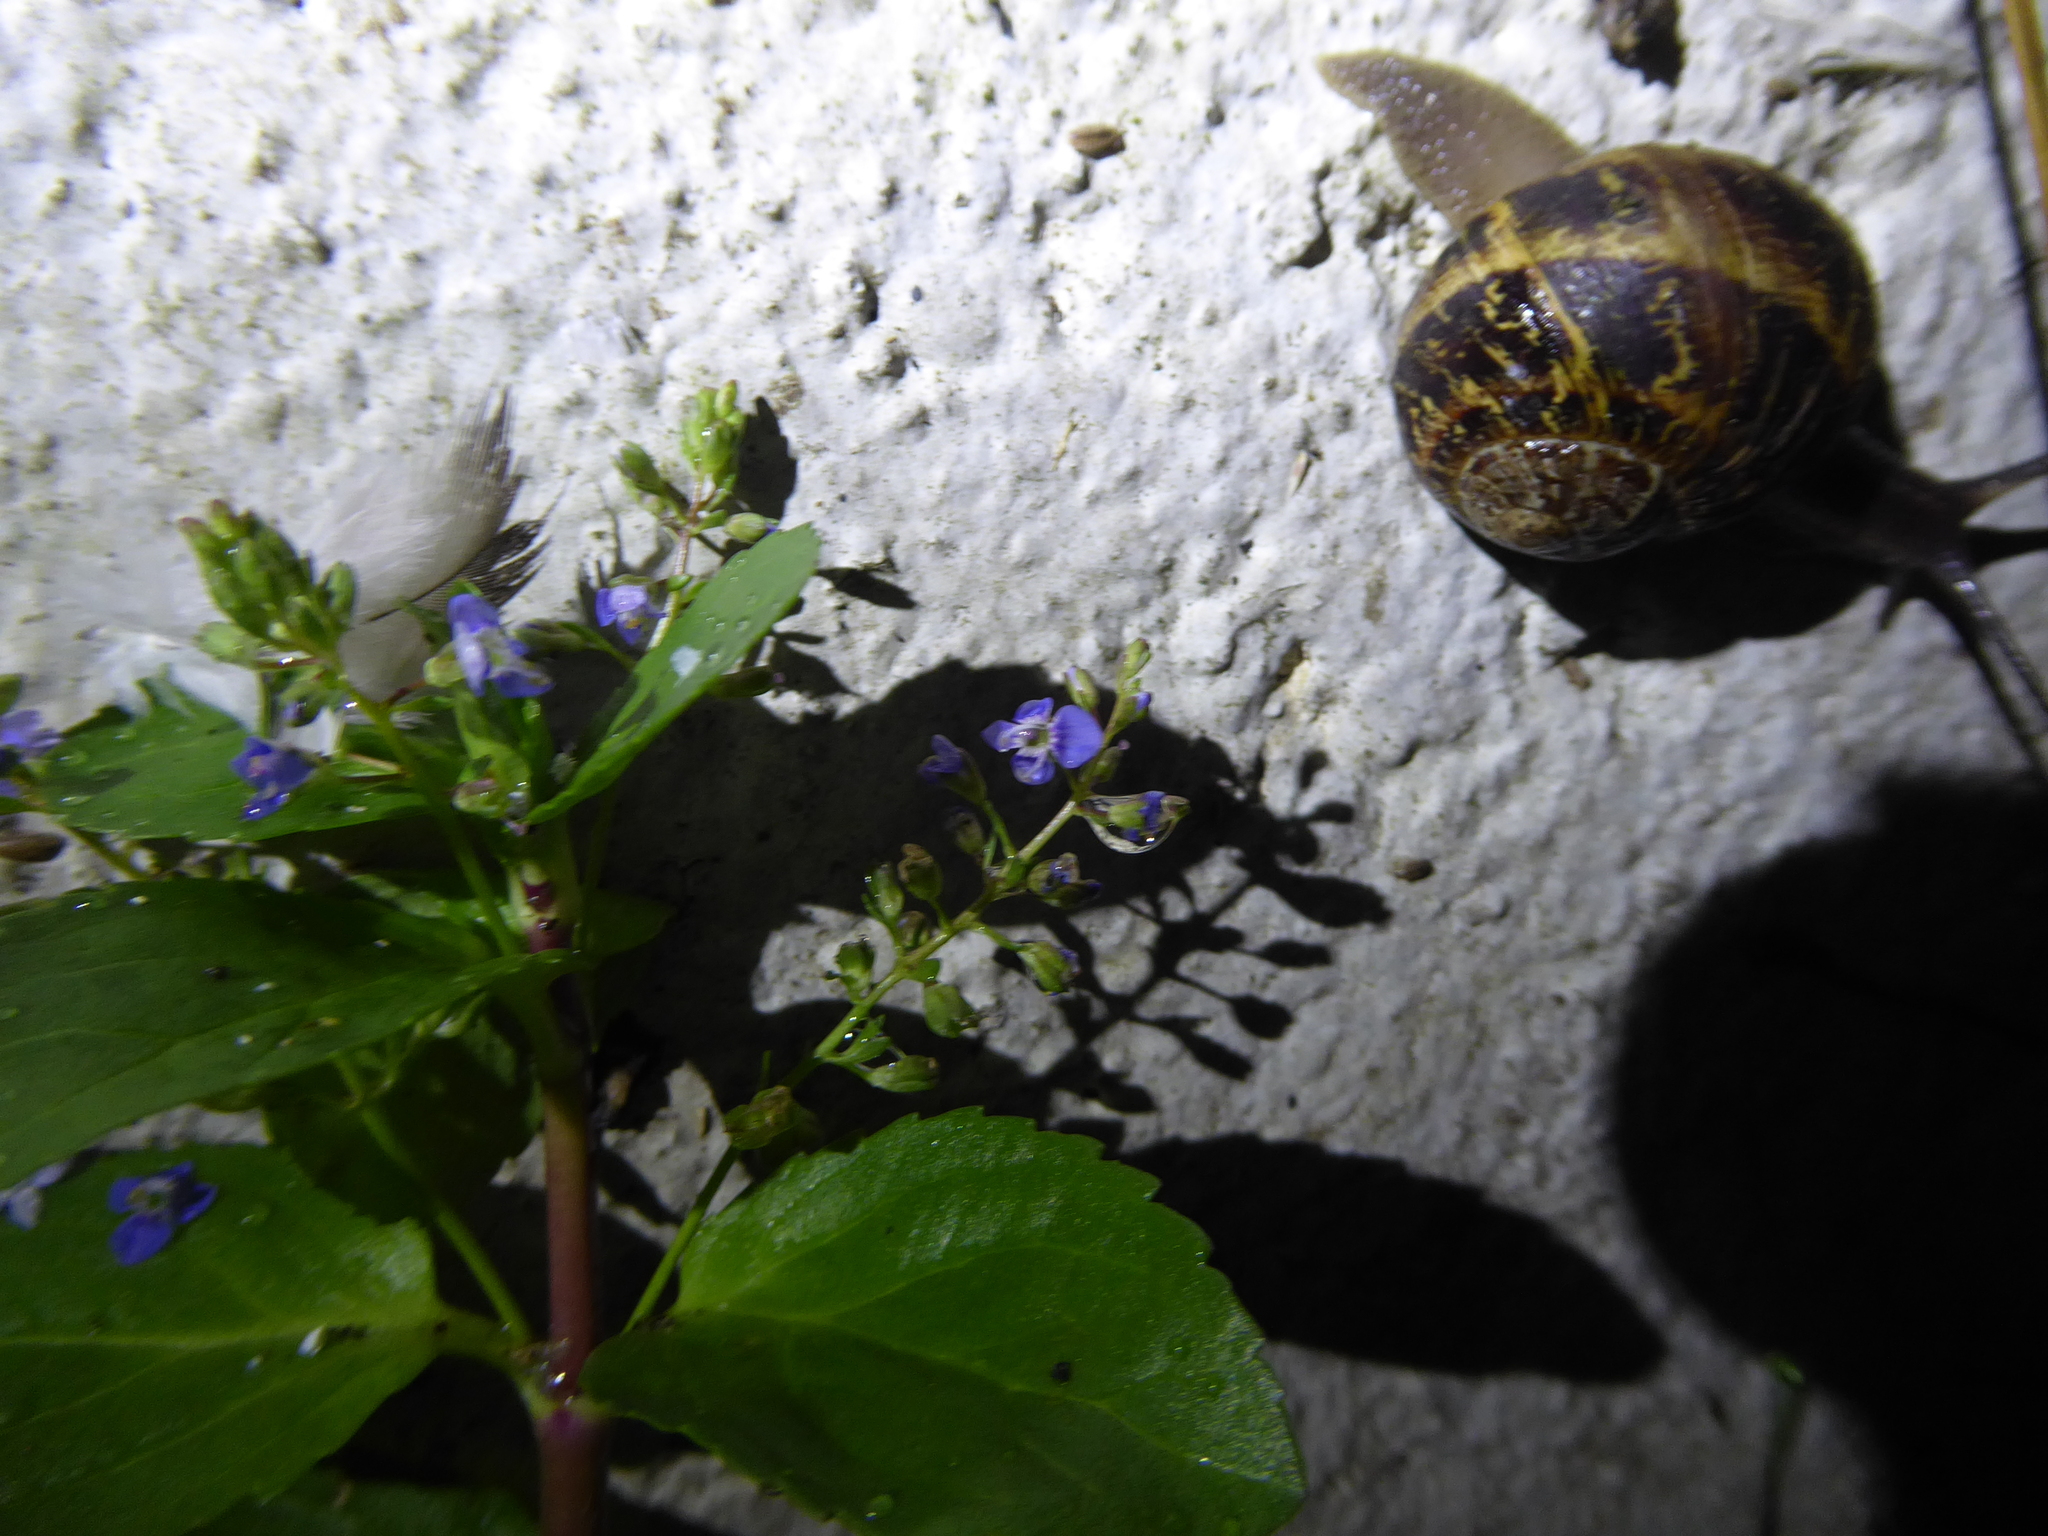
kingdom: Plantae
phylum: Tracheophyta
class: Magnoliopsida
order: Lamiales
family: Plantaginaceae
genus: Veronica
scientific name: Veronica beccabunga
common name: Brooklime
